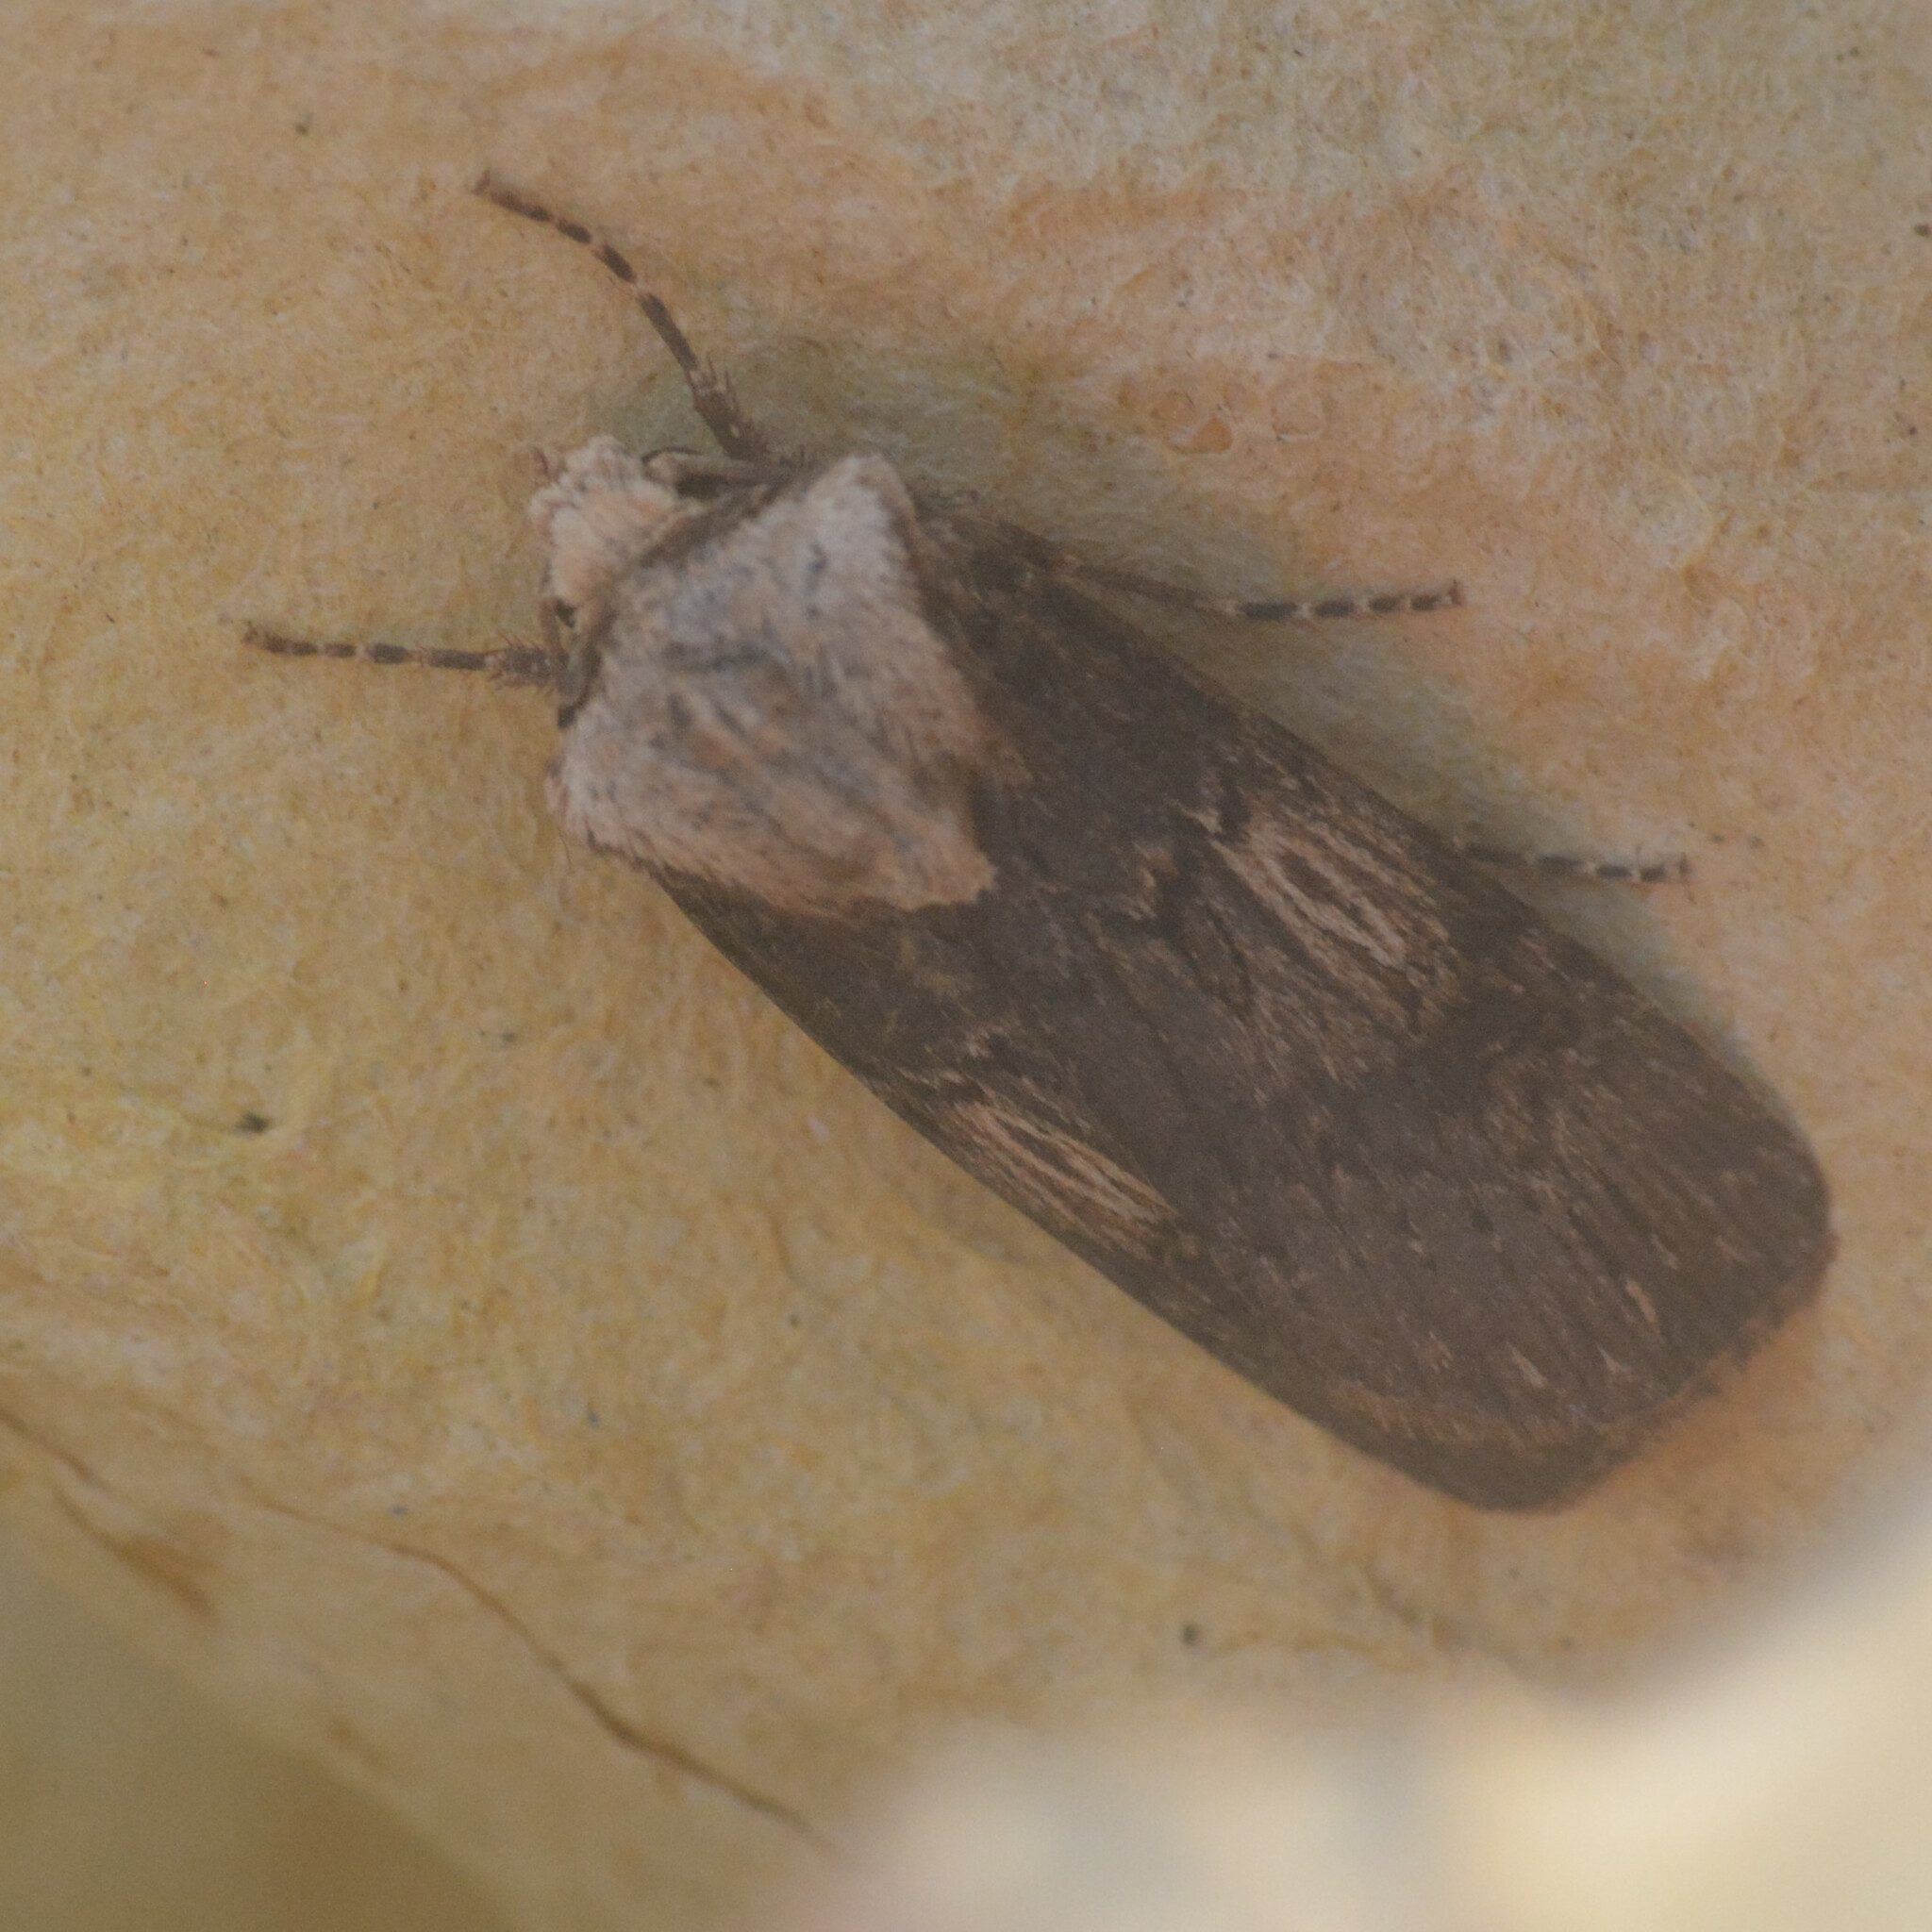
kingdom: Animalia
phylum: Arthropoda
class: Insecta
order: Lepidoptera
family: Noctuidae
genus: Agrotis
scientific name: Agrotis puta
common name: Shuttle-shaped dart
